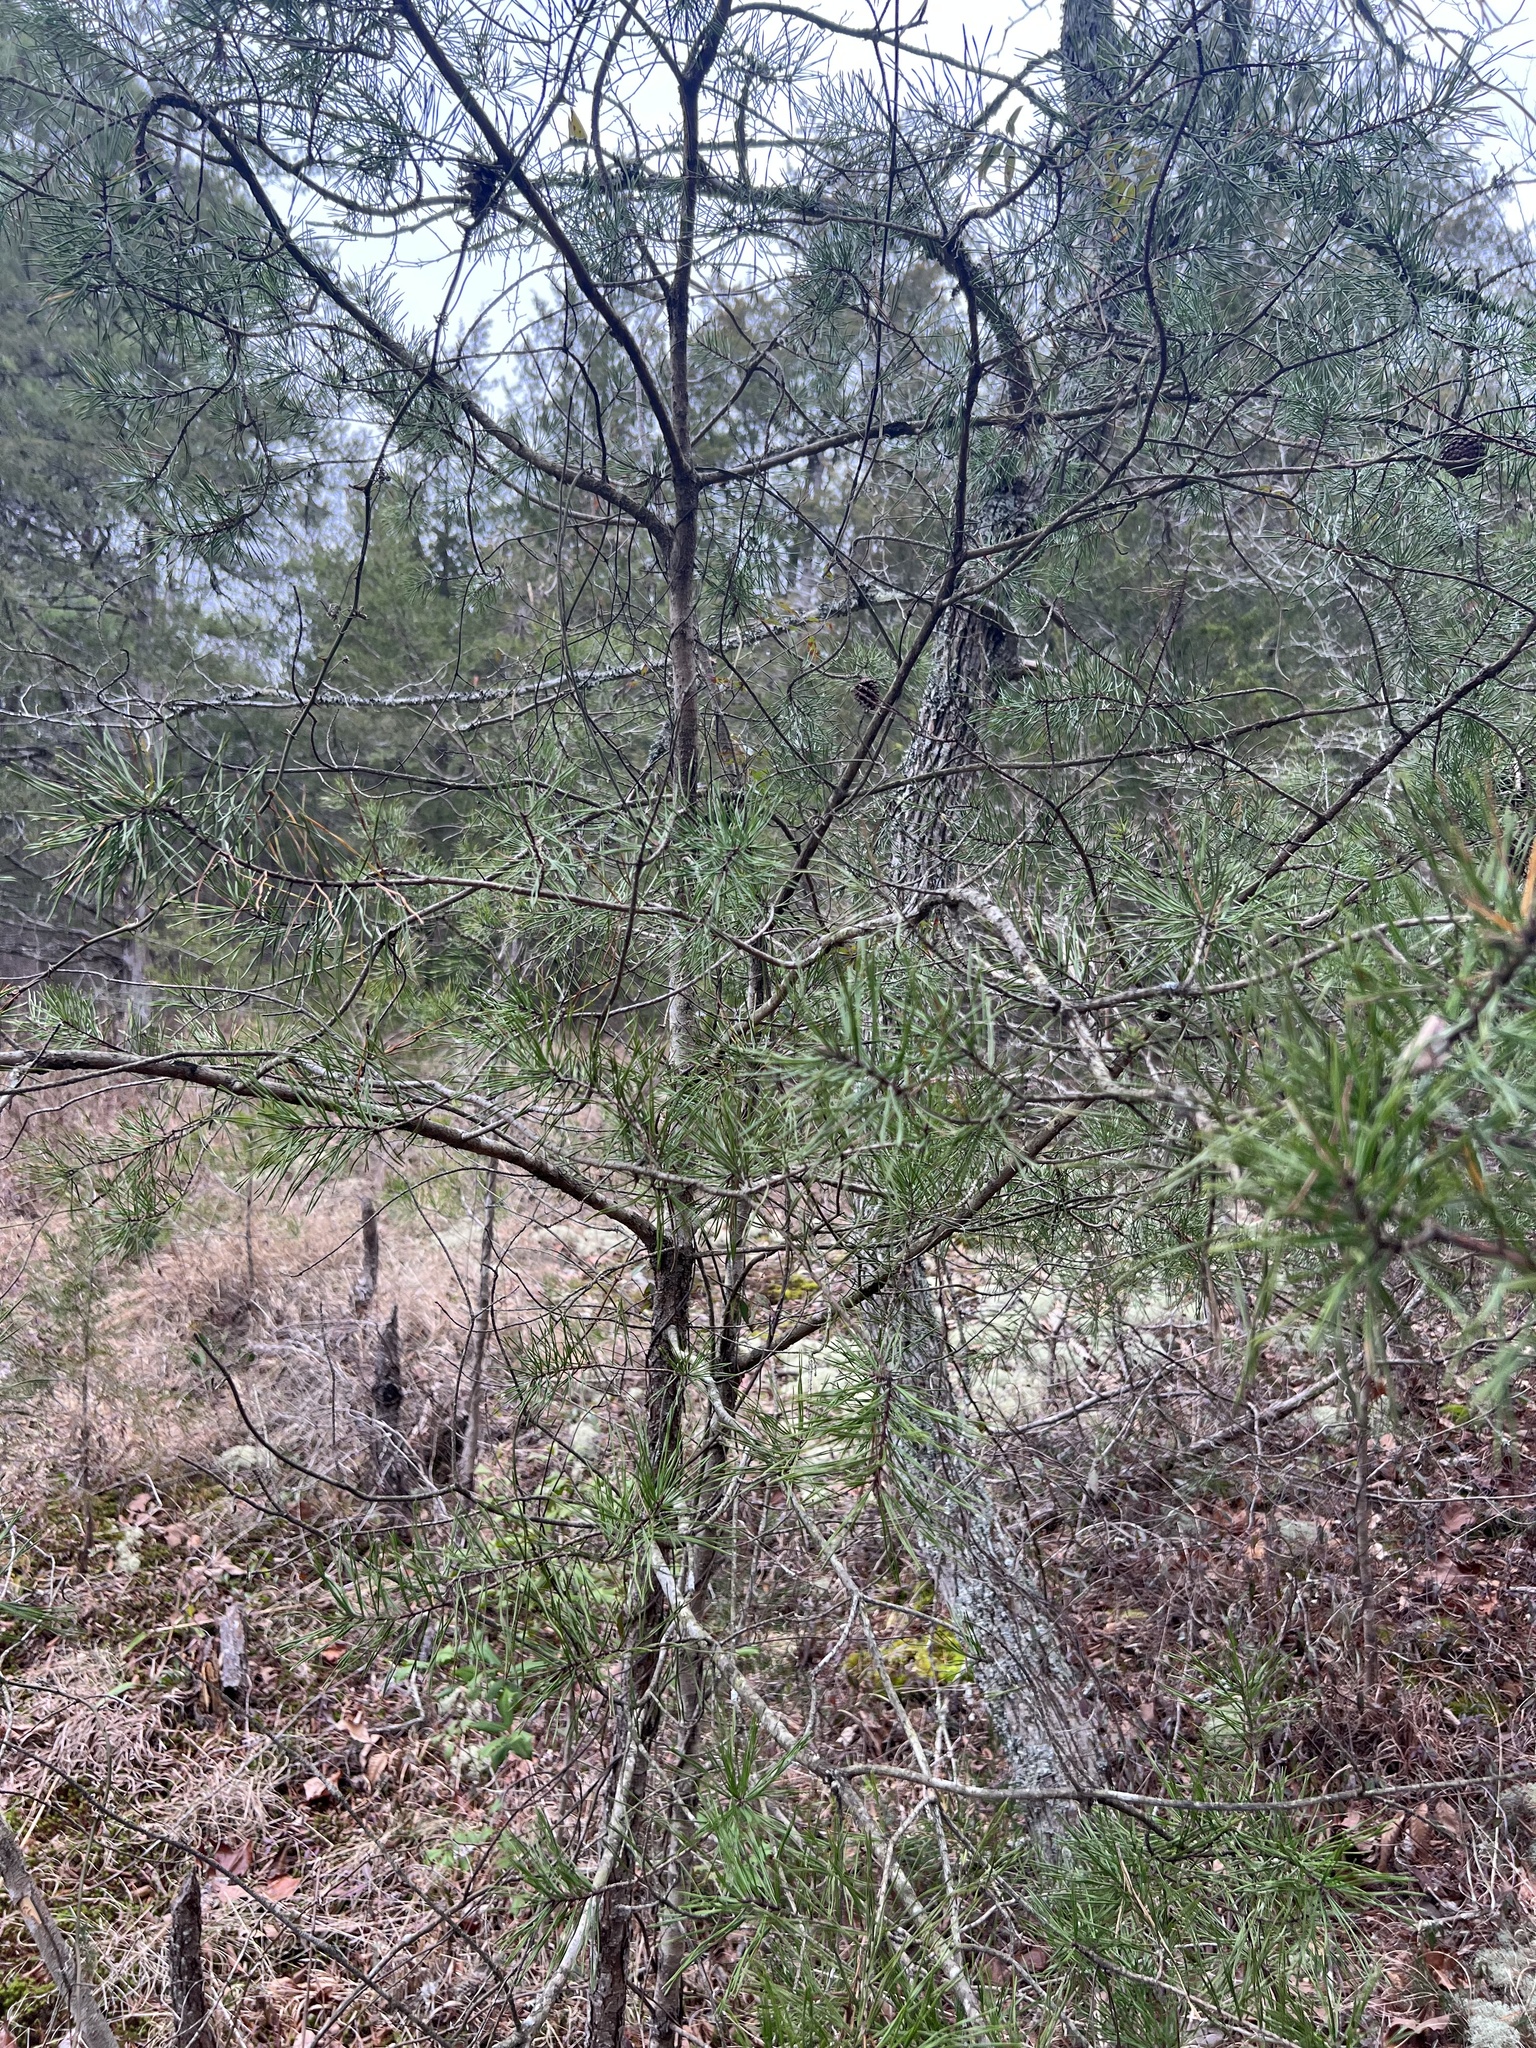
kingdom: Plantae
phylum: Tracheophyta
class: Pinopsida
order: Pinales
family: Pinaceae
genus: Pinus
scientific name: Pinus virginiana
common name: Scrub pine
